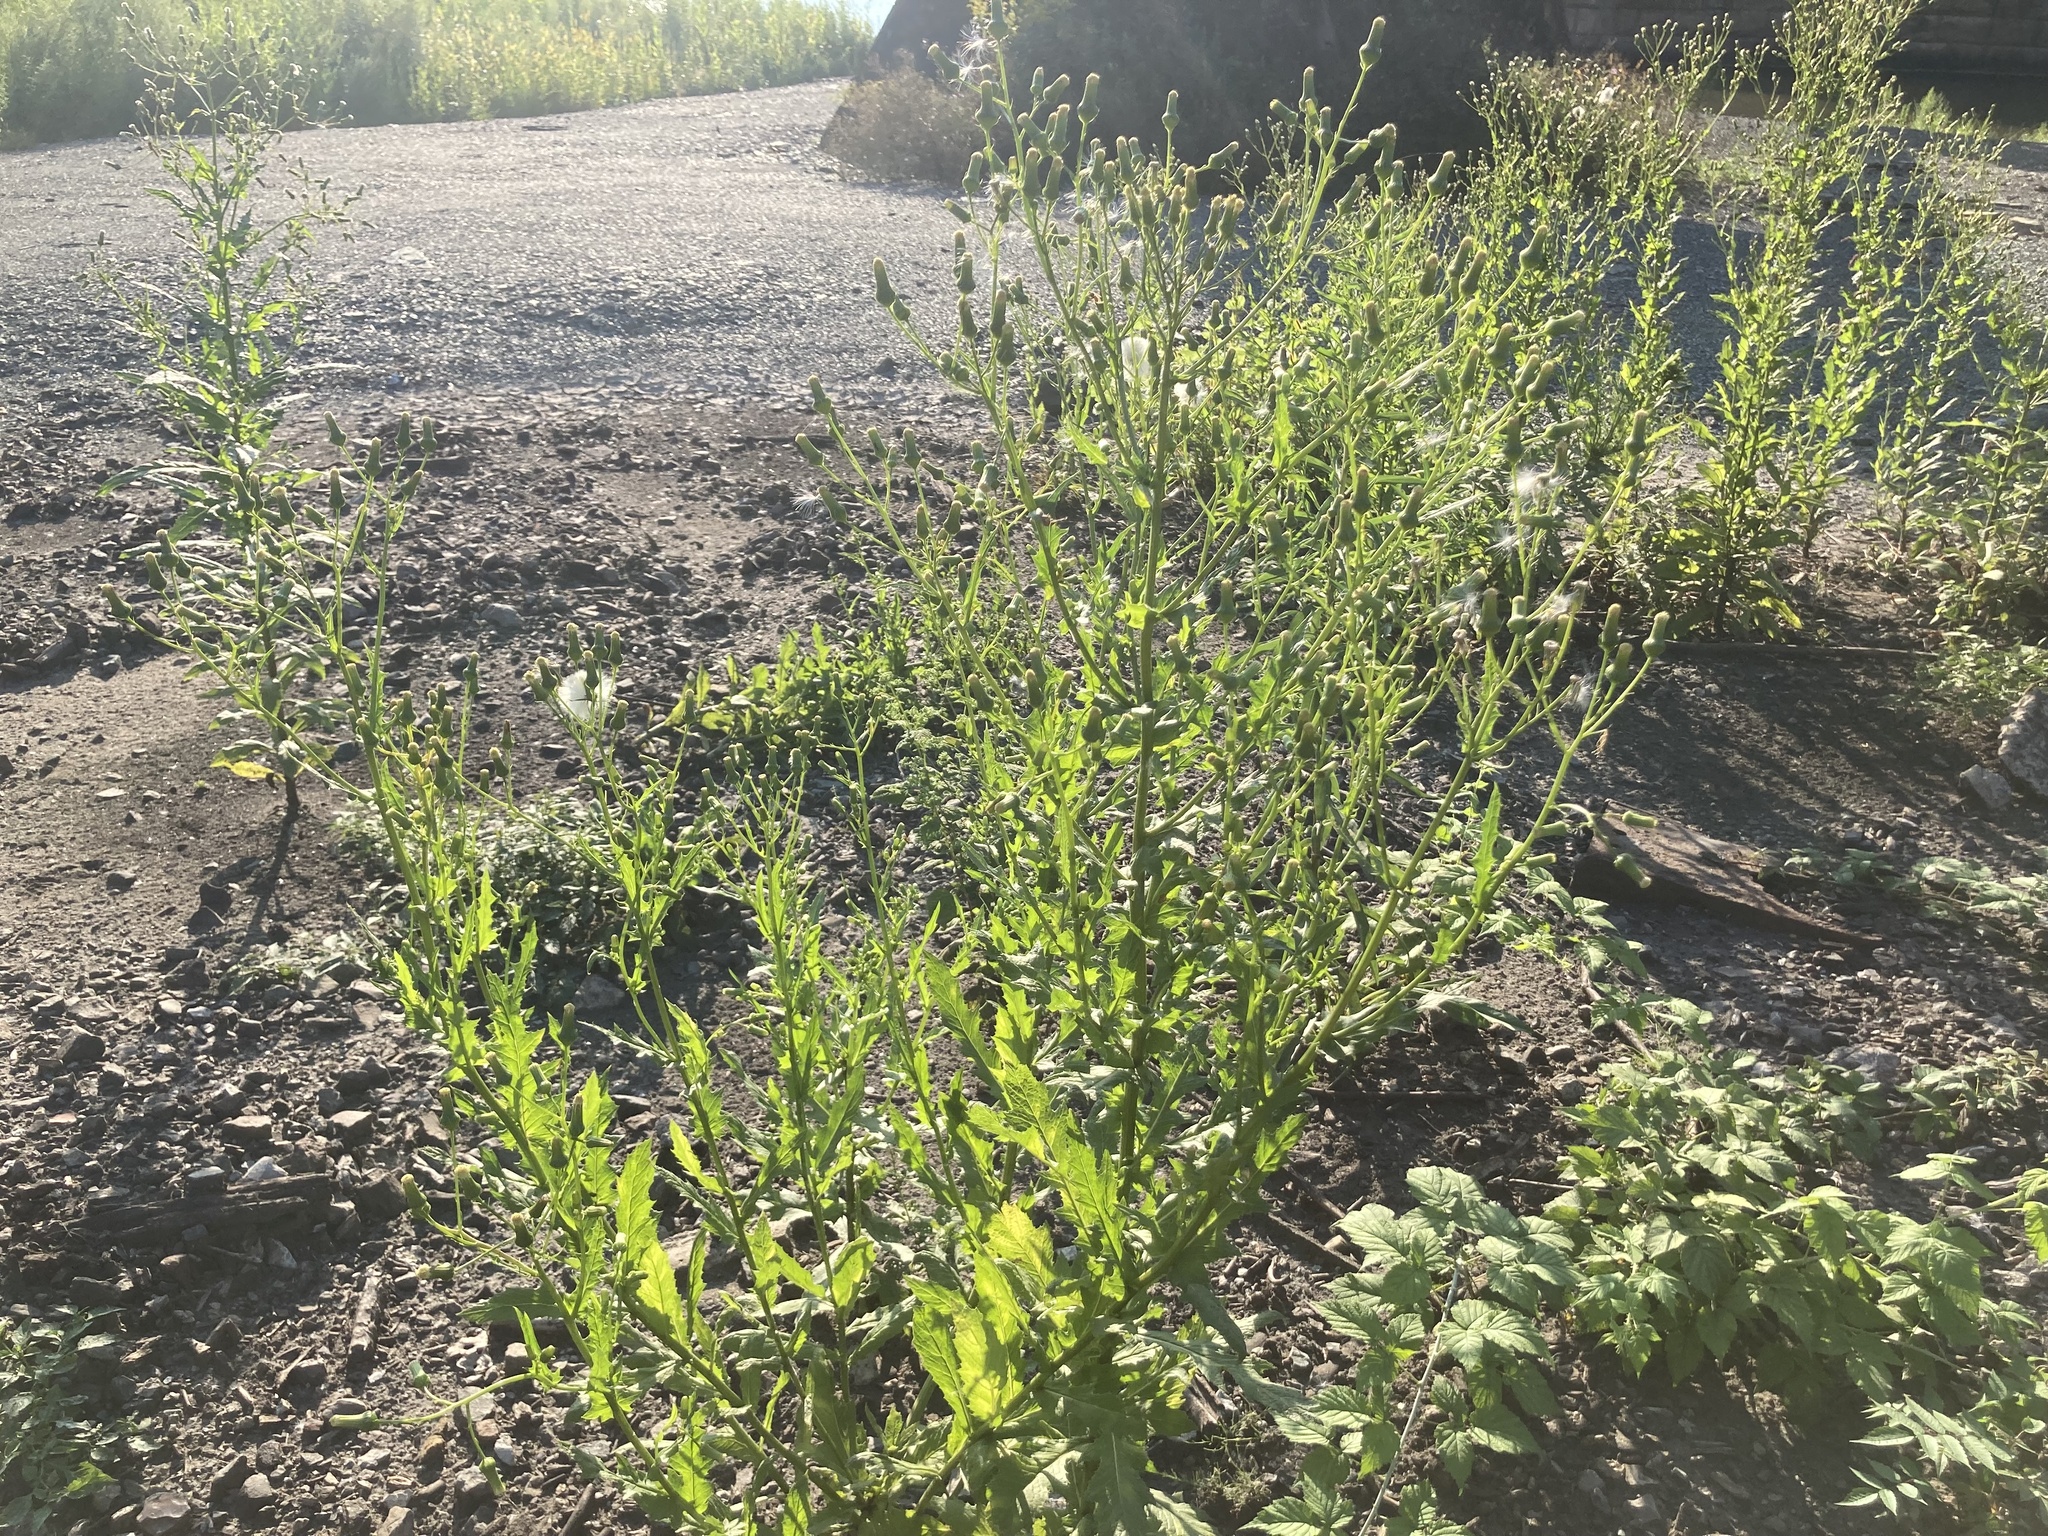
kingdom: Plantae
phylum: Tracheophyta
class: Magnoliopsida
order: Asterales
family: Asteraceae
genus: Erechtites
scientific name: Erechtites hieraciifolius
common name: American burnweed
